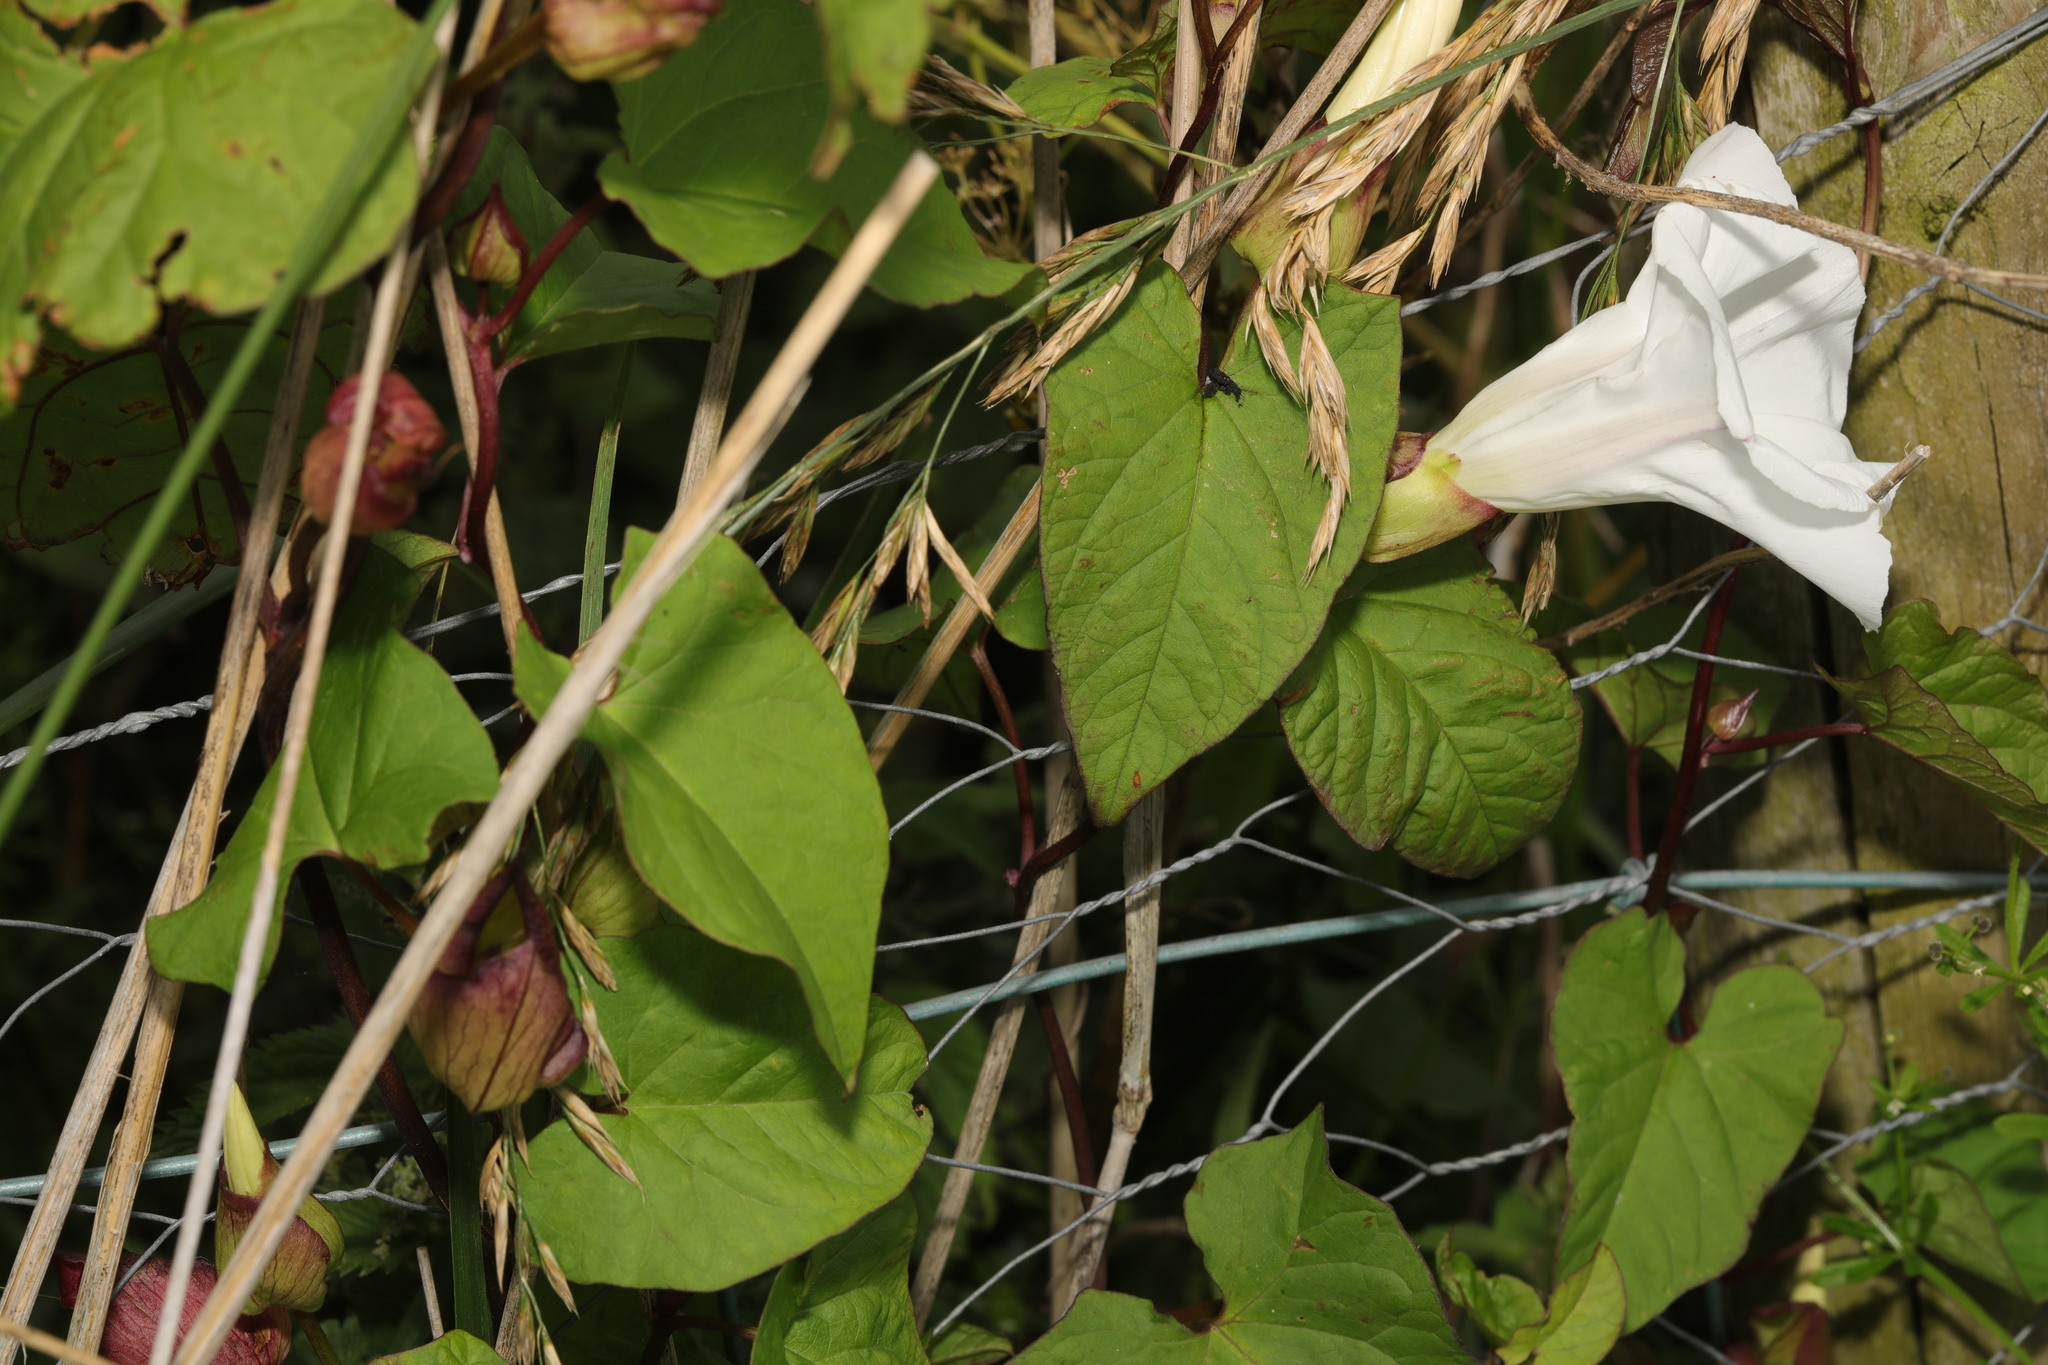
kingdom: Plantae
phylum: Tracheophyta
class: Magnoliopsida
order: Solanales
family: Convolvulaceae
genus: Calystegia
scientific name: Calystegia silvatica
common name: Large bindweed
